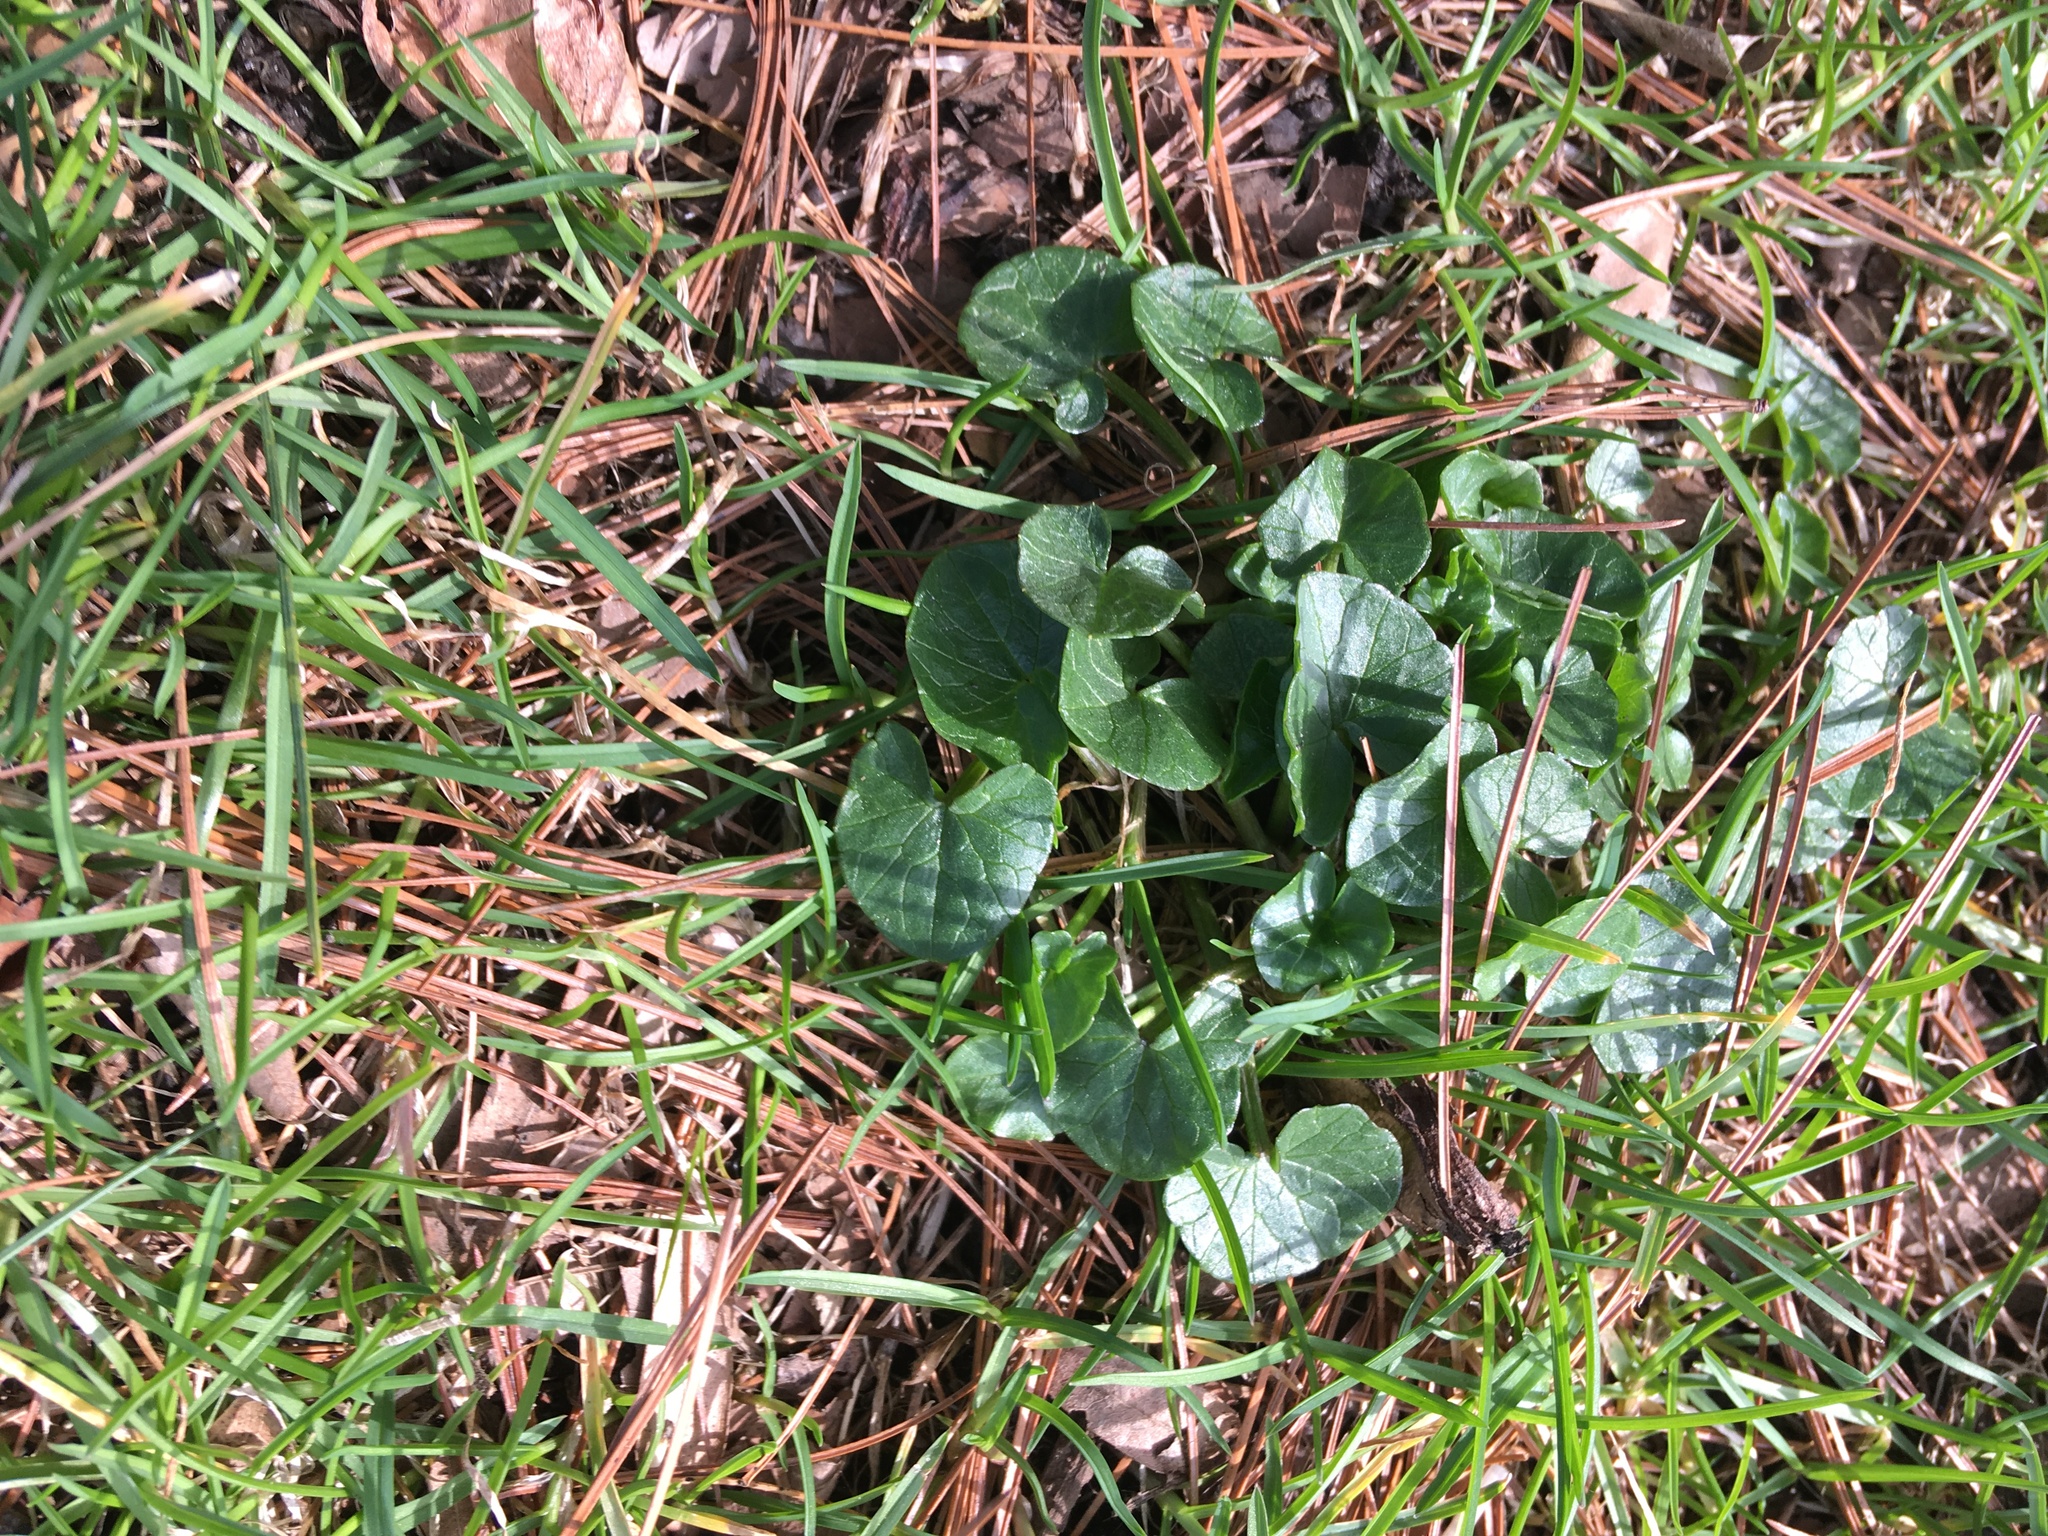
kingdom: Plantae
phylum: Tracheophyta
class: Magnoliopsida
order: Ranunculales
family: Ranunculaceae
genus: Ficaria
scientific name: Ficaria verna
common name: Lesser celandine
